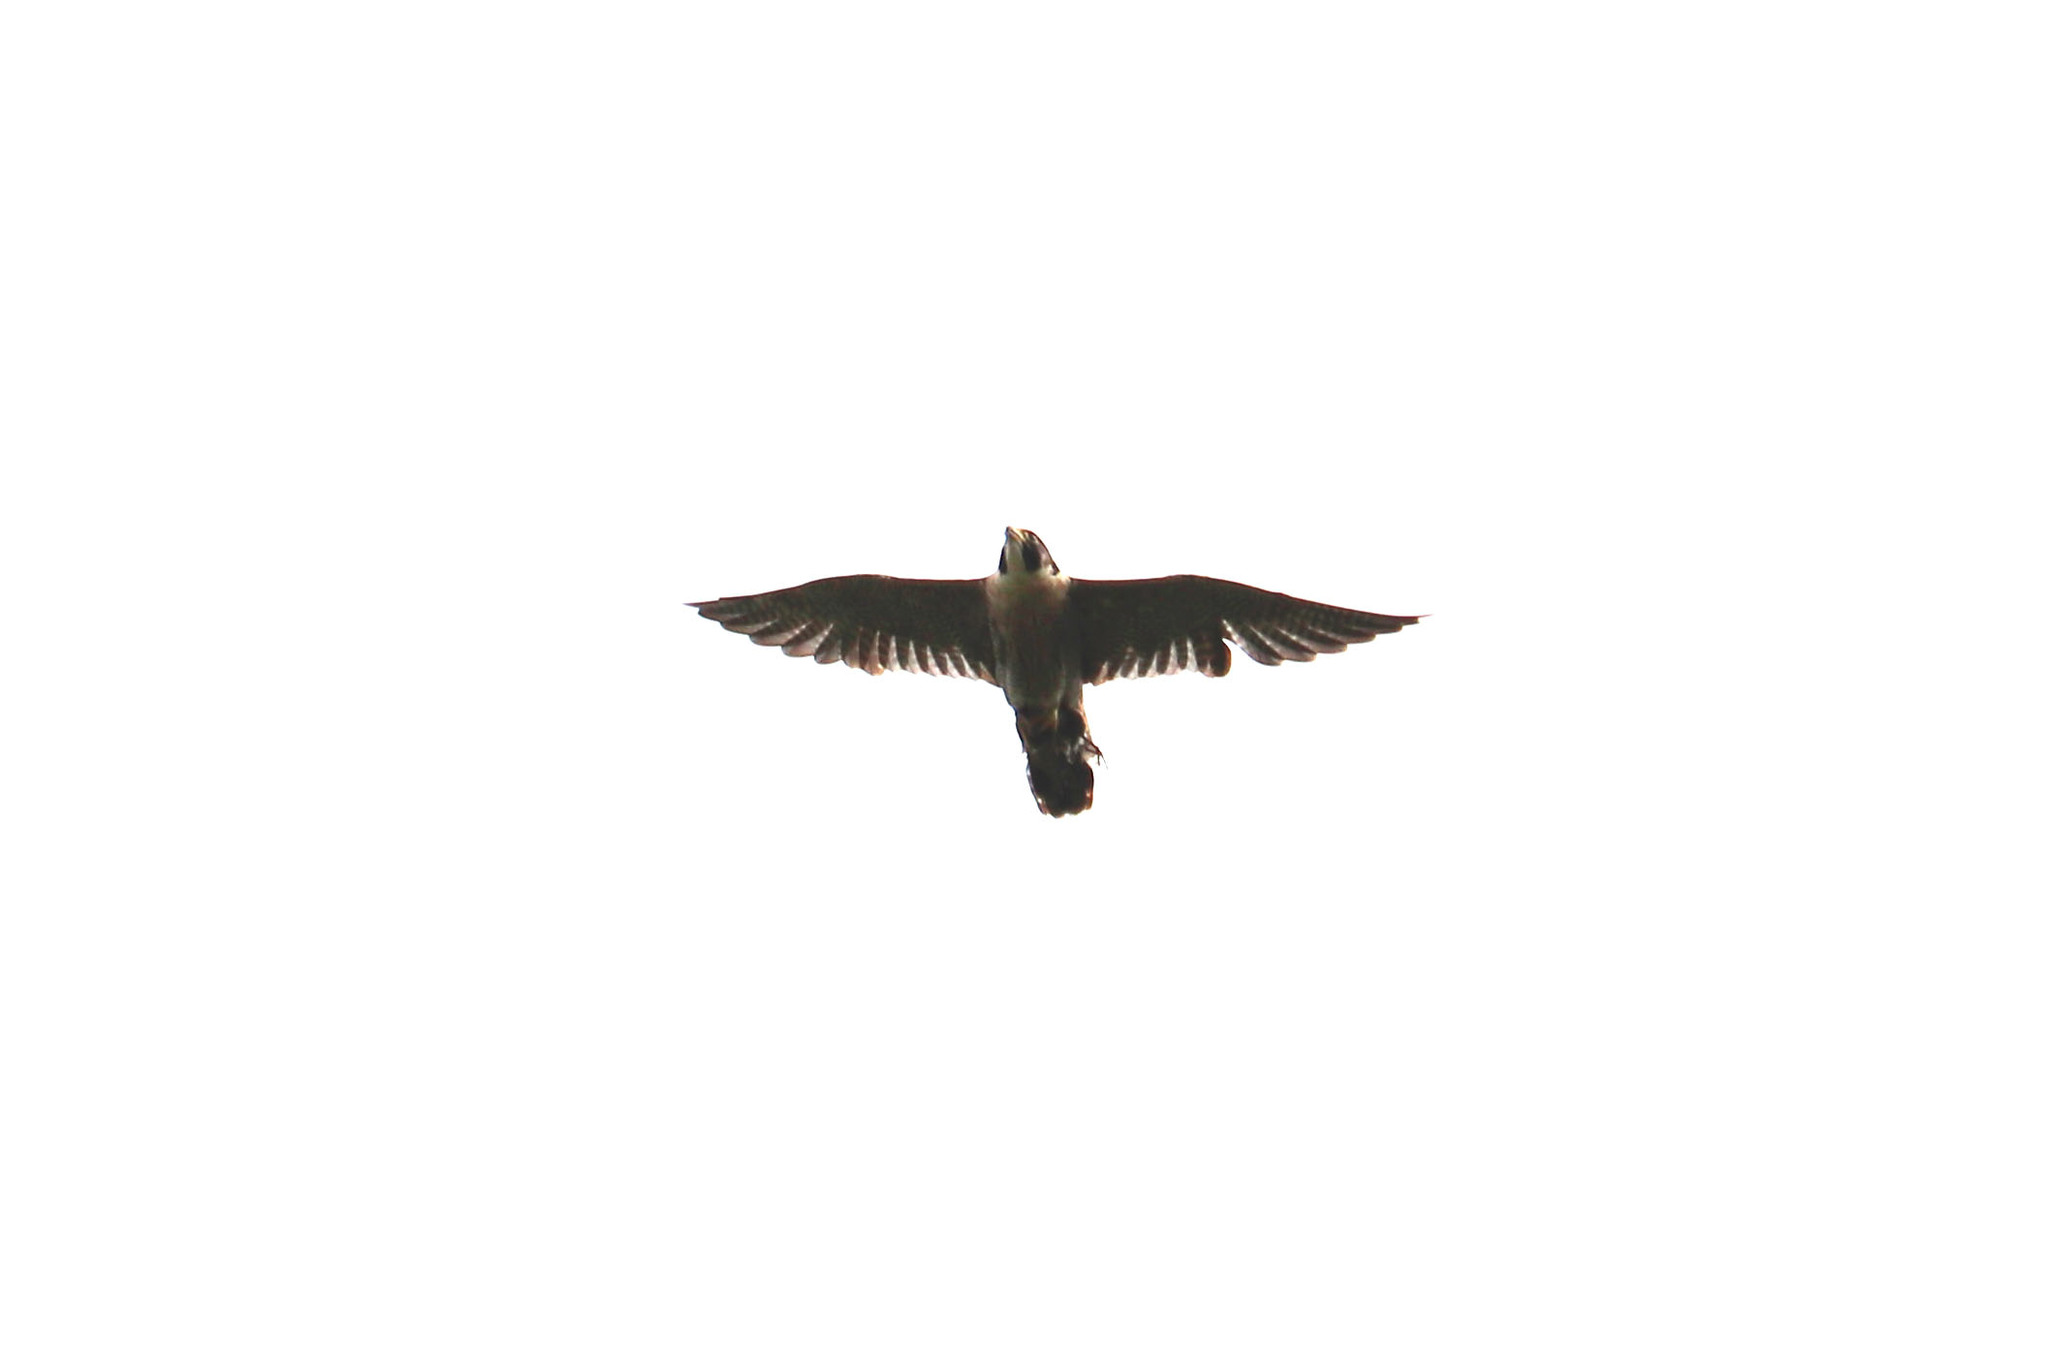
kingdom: Animalia
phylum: Chordata
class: Aves
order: Falconiformes
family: Falconidae
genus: Falco
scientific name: Falco peregrinus
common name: Peregrine falcon
